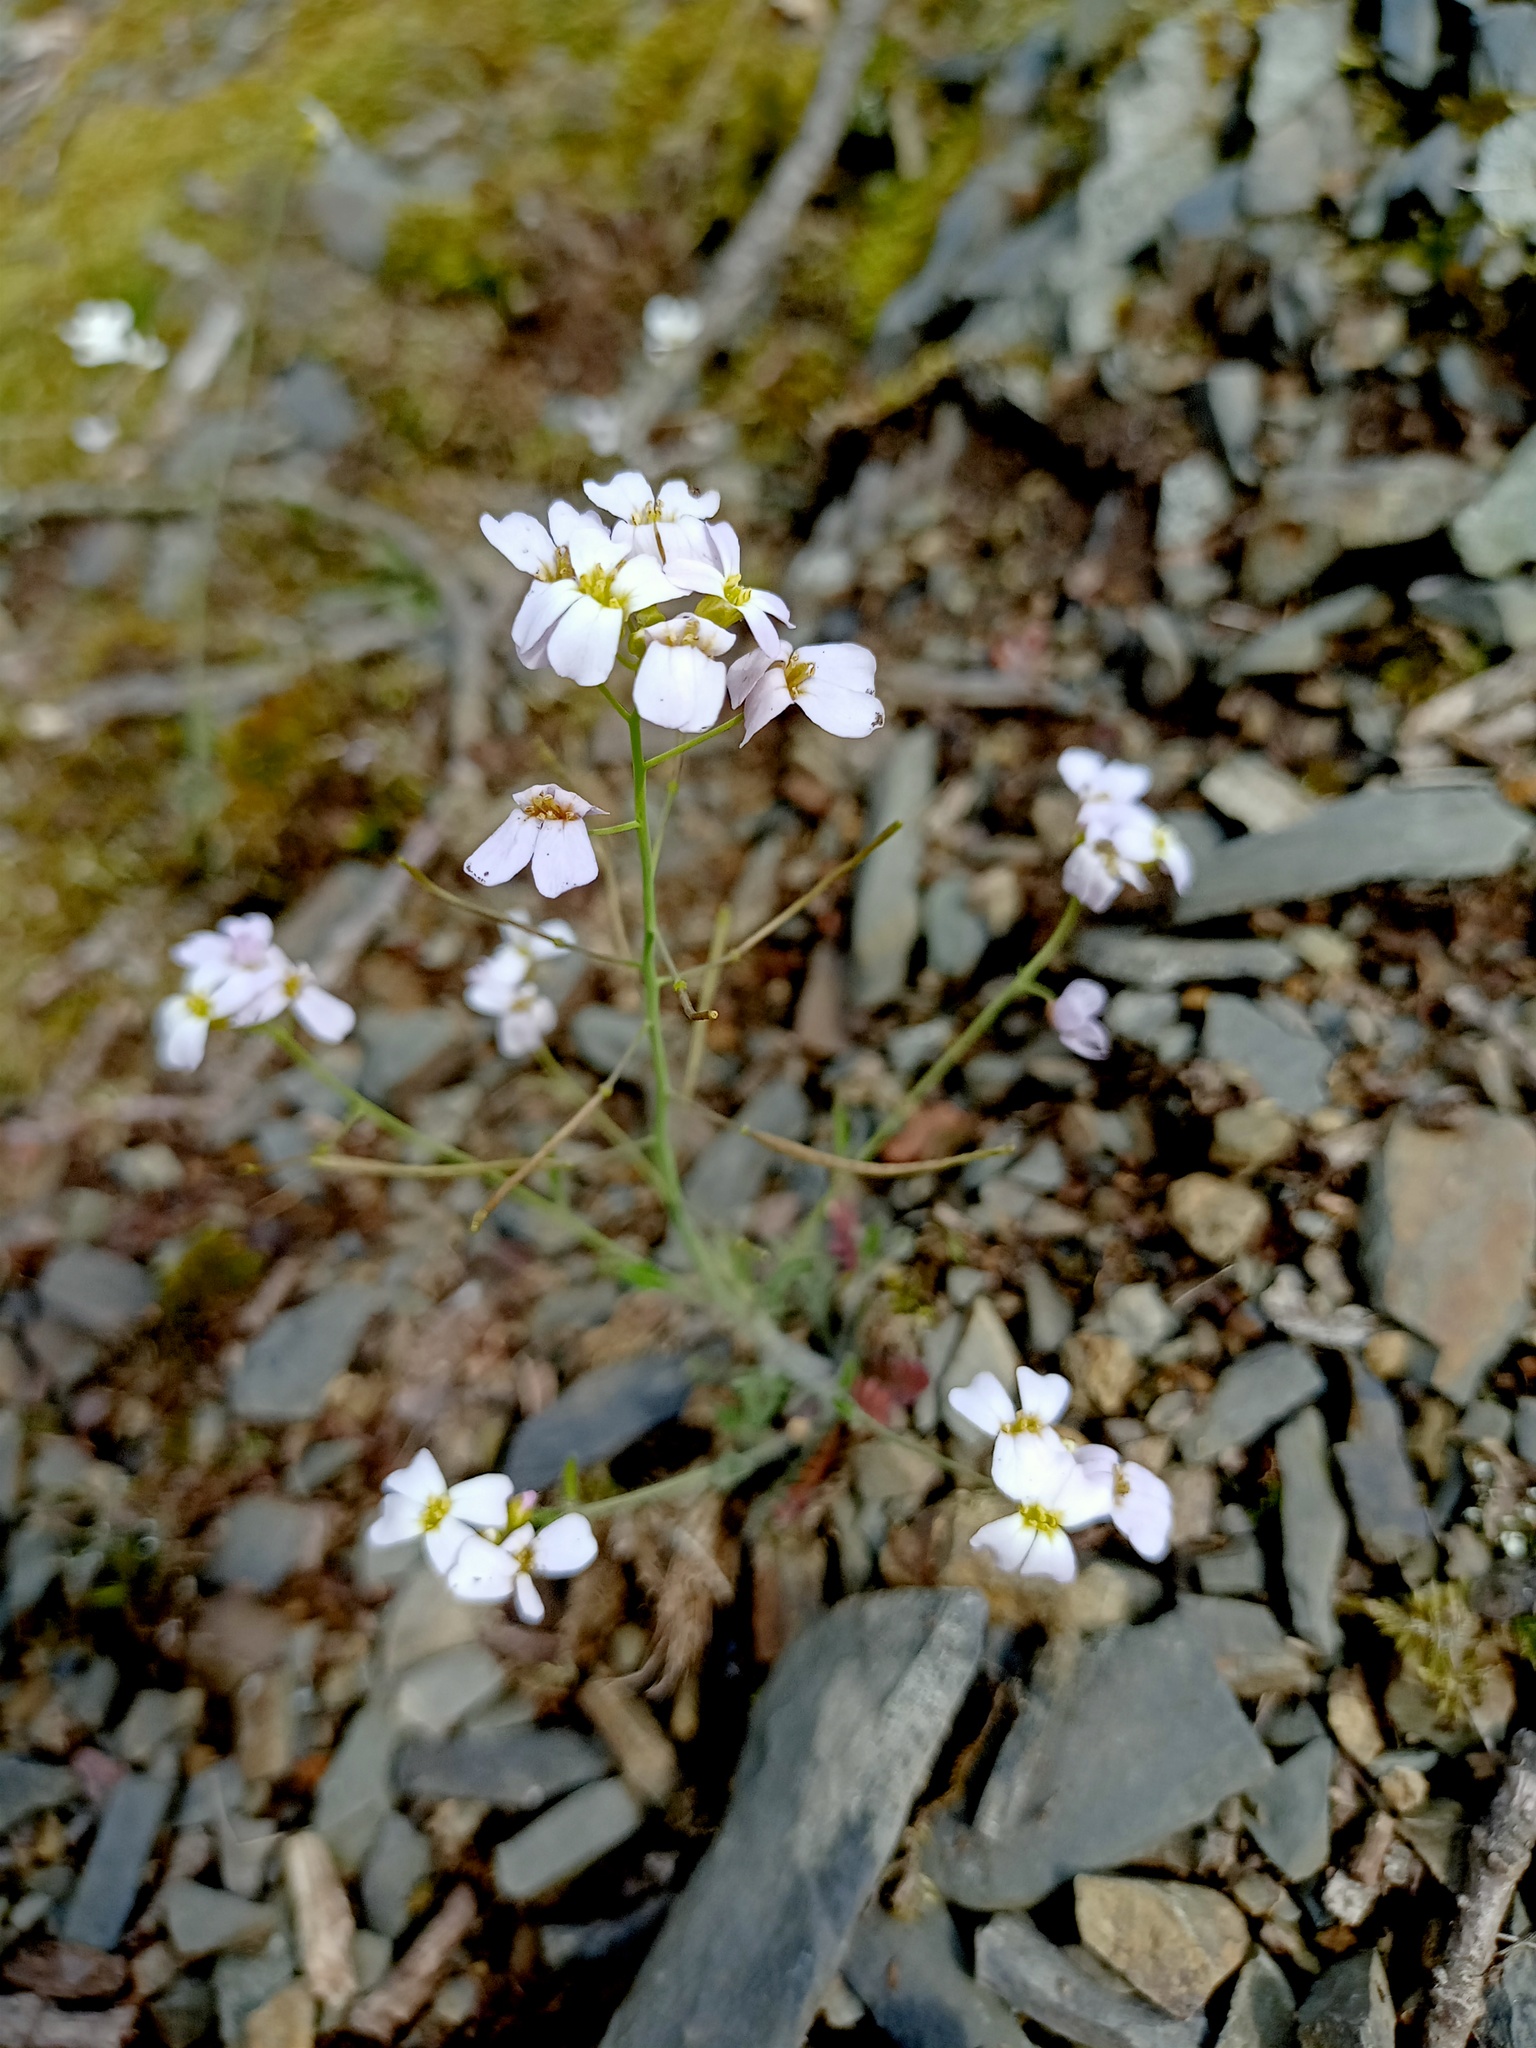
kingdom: Plantae
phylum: Tracheophyta
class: Magnoliopsida
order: Brassicales
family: Brassicaceae
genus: Arabidopsis
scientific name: Arabidopsis arenosa
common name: Sand rock-cress
